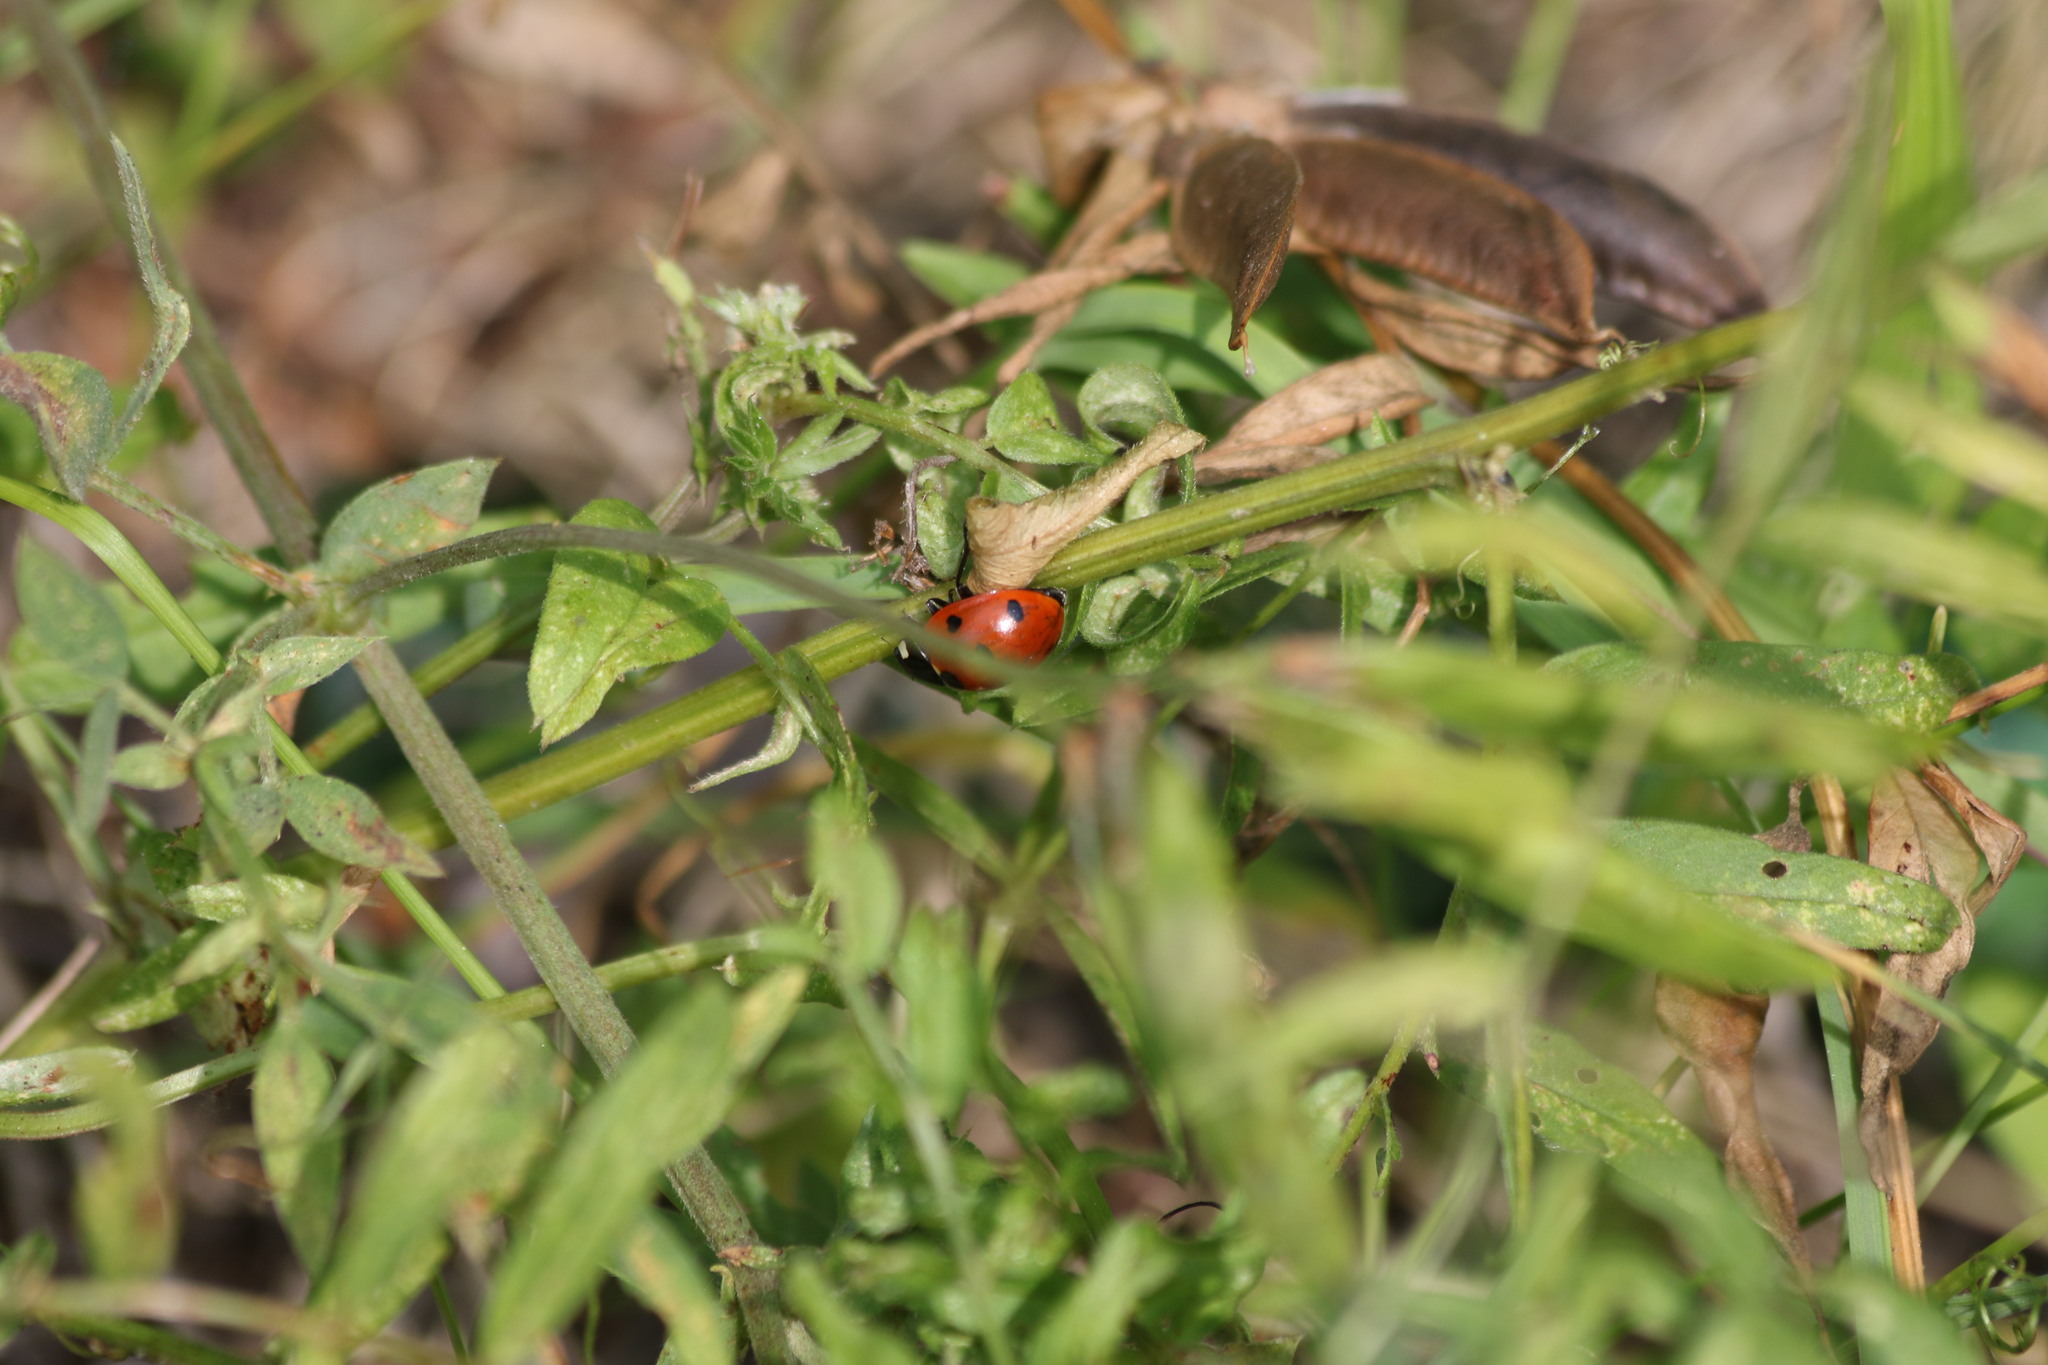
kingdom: Animalia
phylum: Arthropoda
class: Insecta
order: Coleoptera
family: Coccinellidae
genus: Coccinella
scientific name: Coccinella septempunctata
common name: Sevenspotted lady beetle
